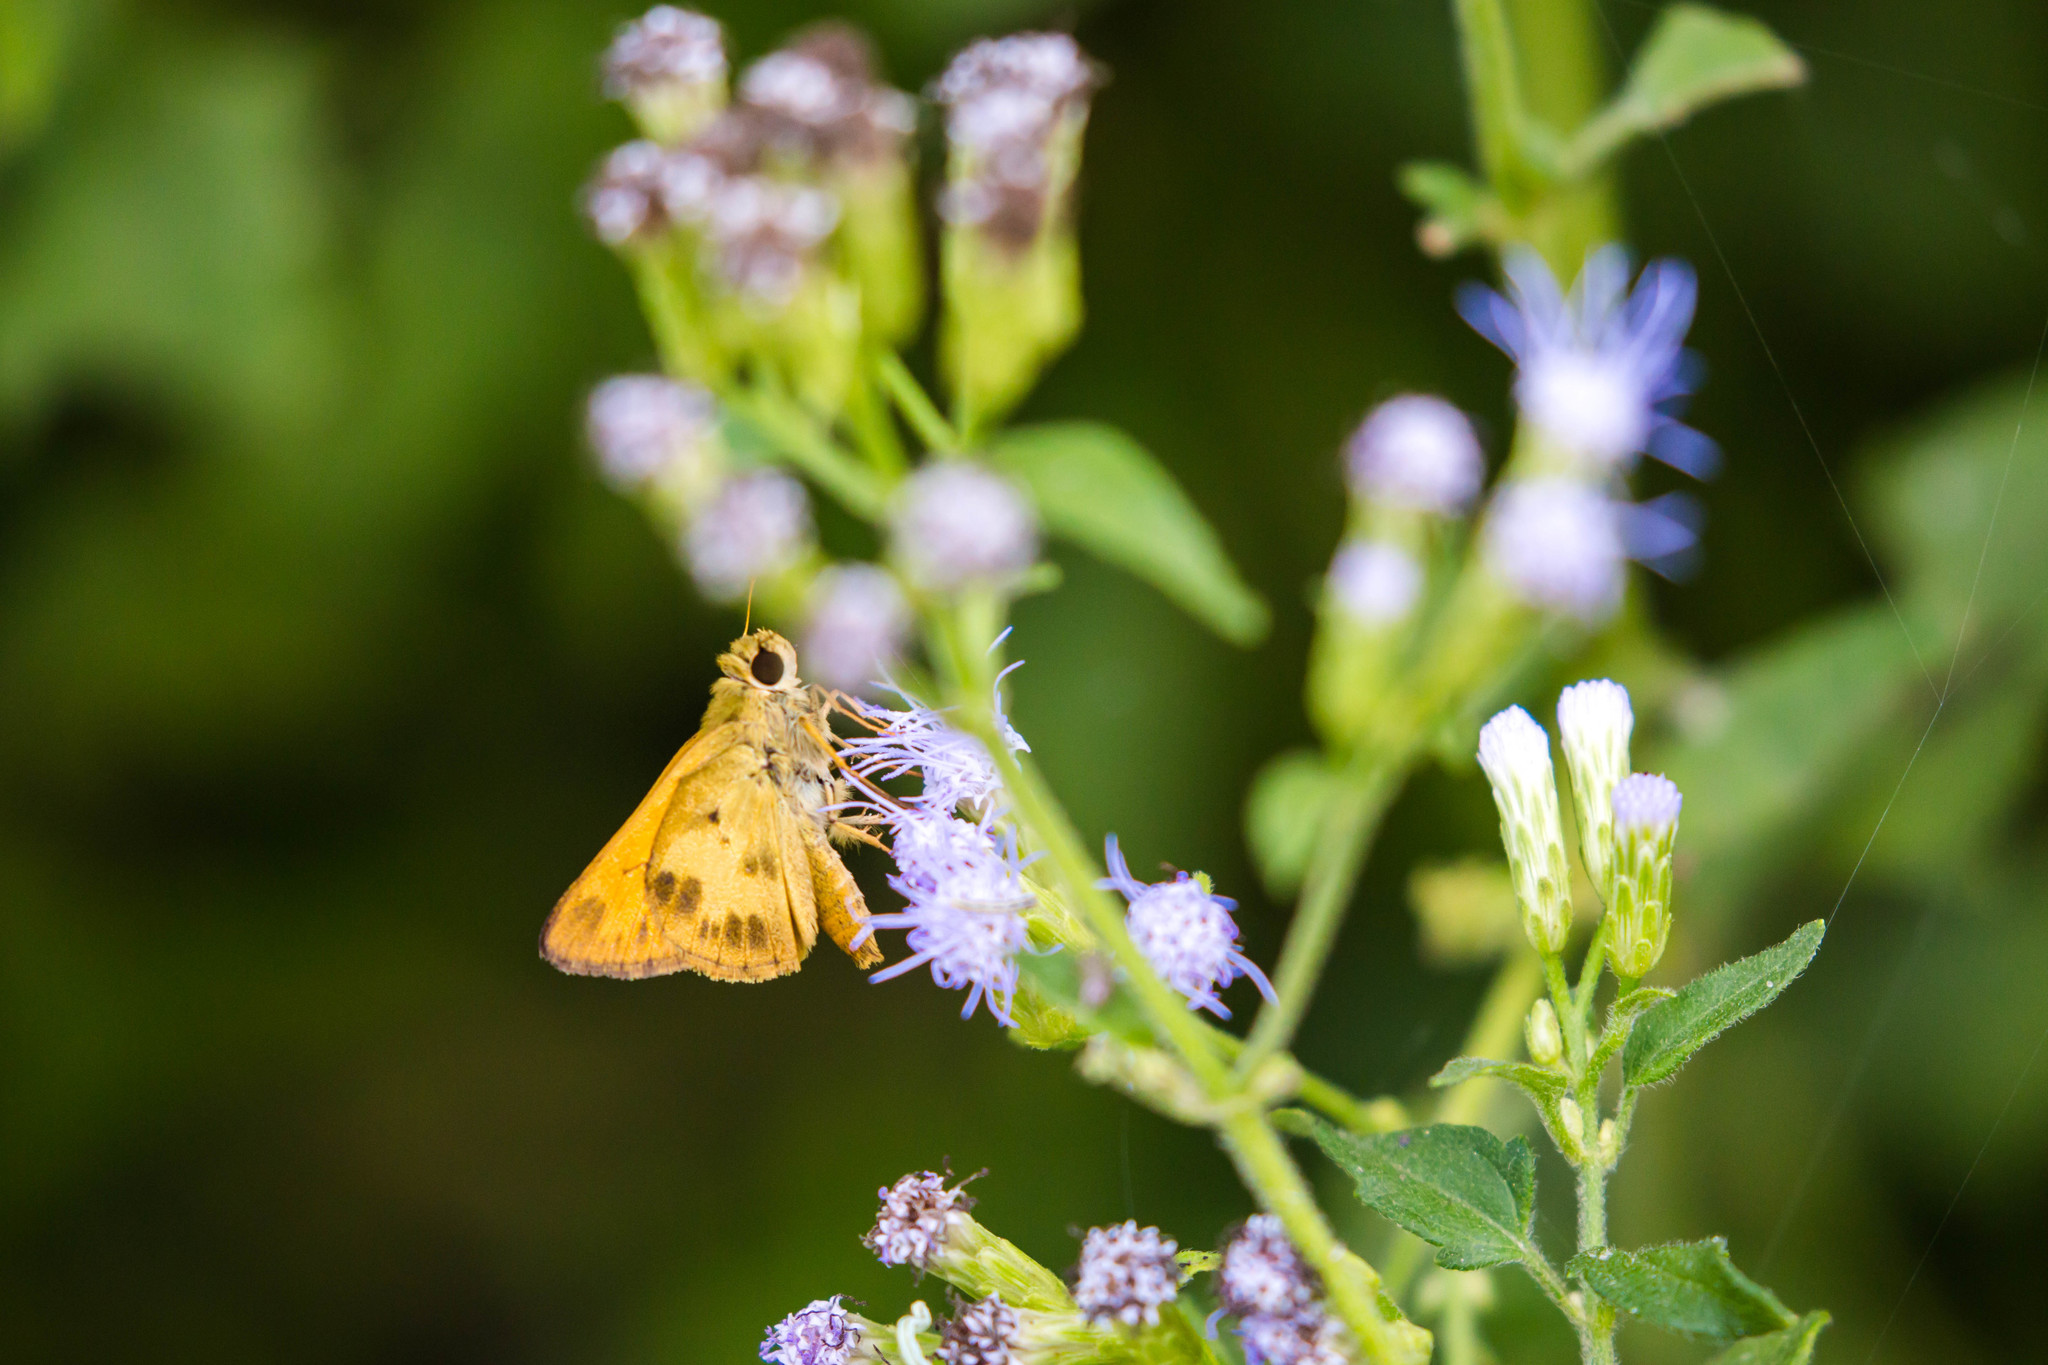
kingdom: Animalia
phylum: Arthropoda
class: Insecta
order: Lepidoptera
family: Hesperiidae
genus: Polites
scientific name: Polites vibex
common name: Whirlabout
